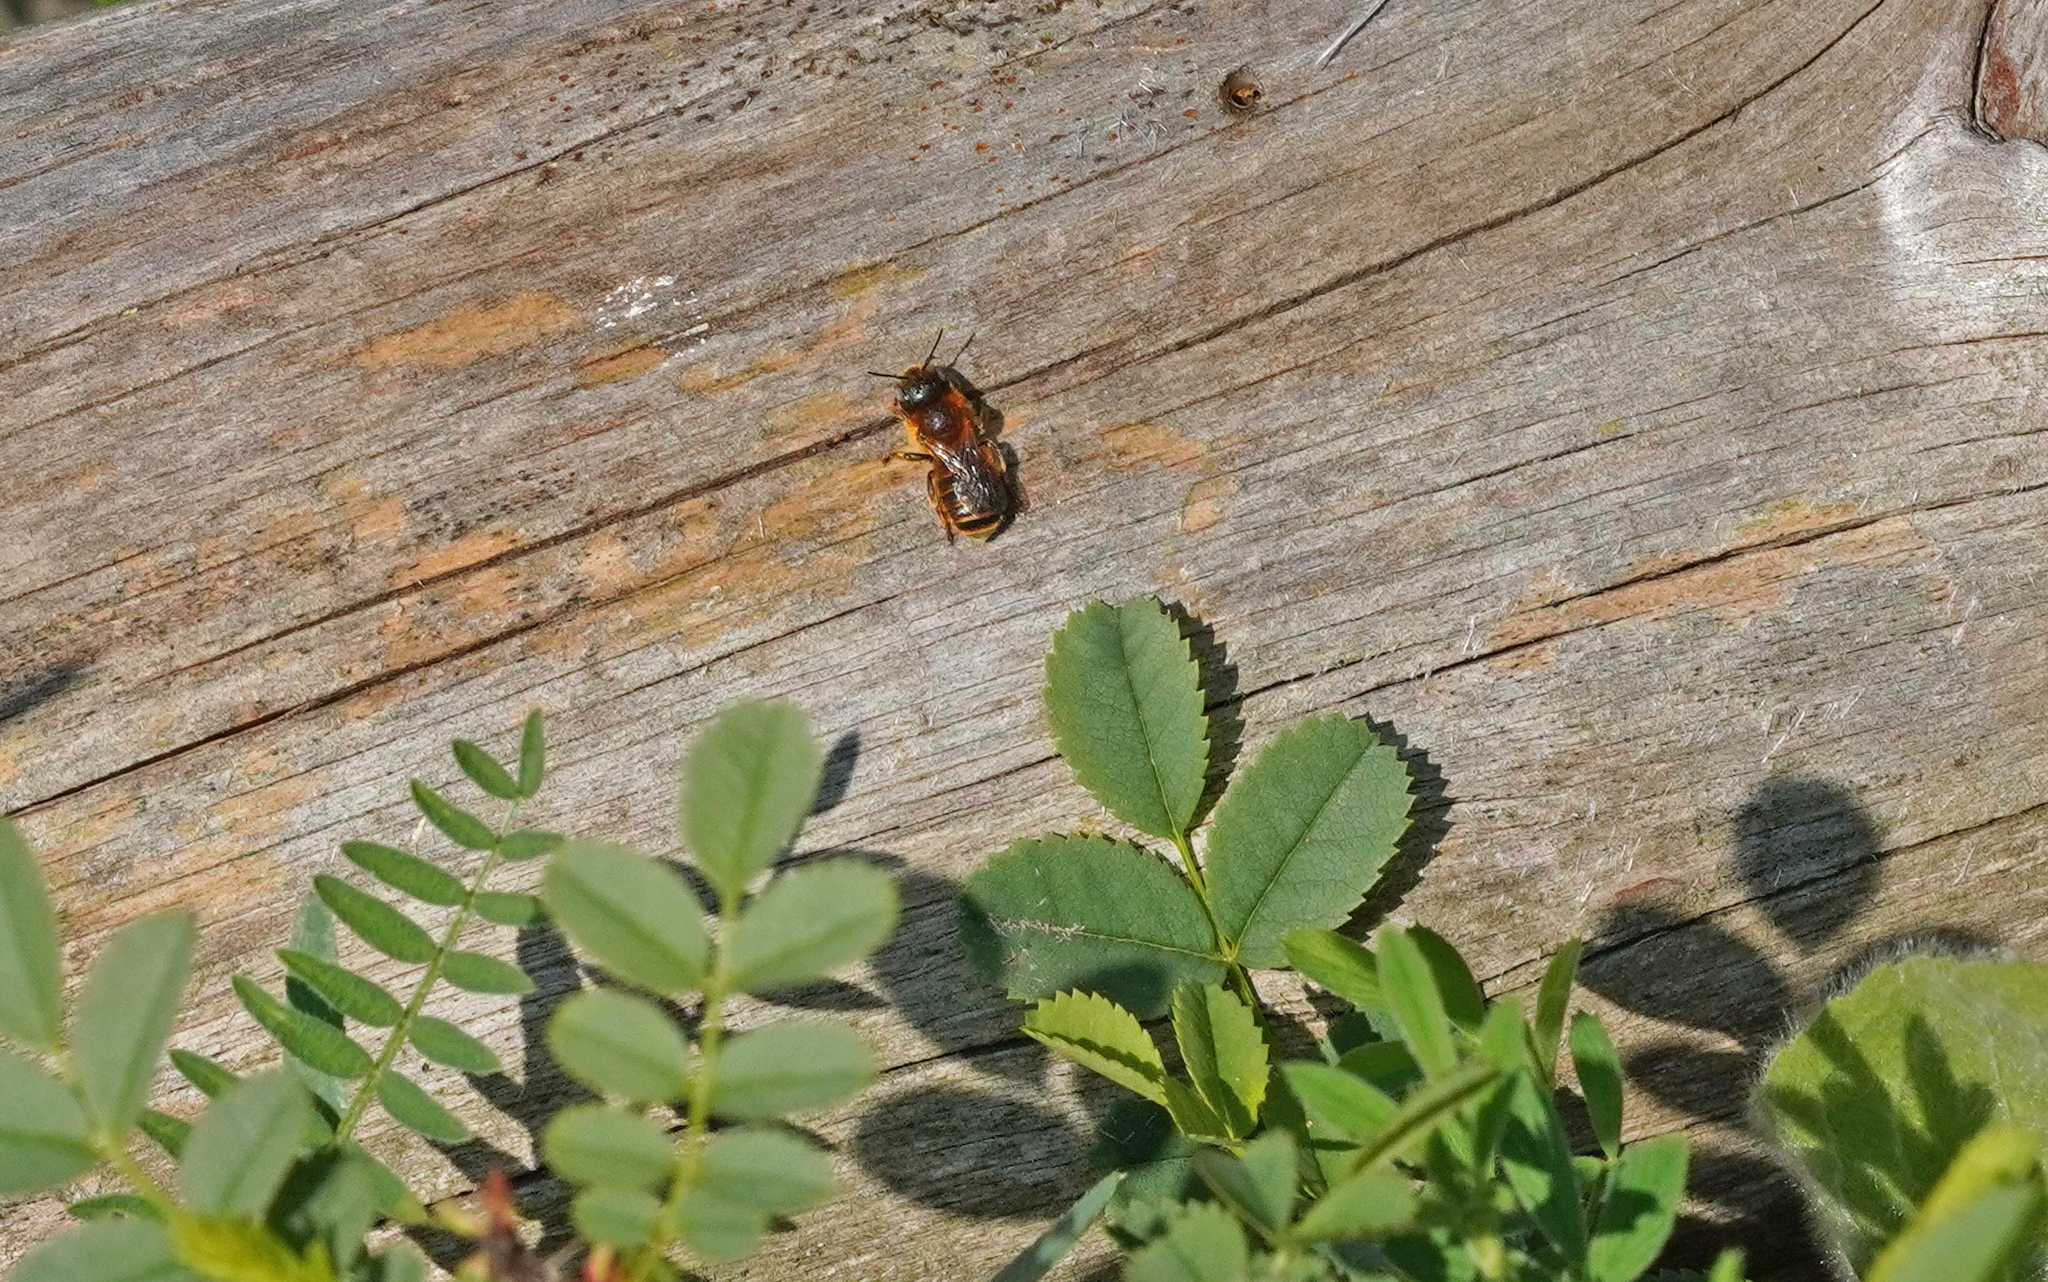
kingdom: Animalia
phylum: Arthropoda
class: Insecta
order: Hymenoptera
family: Megachilidae
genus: Osmia
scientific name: Osmia aurulenta
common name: Gold-fringed mason bee
